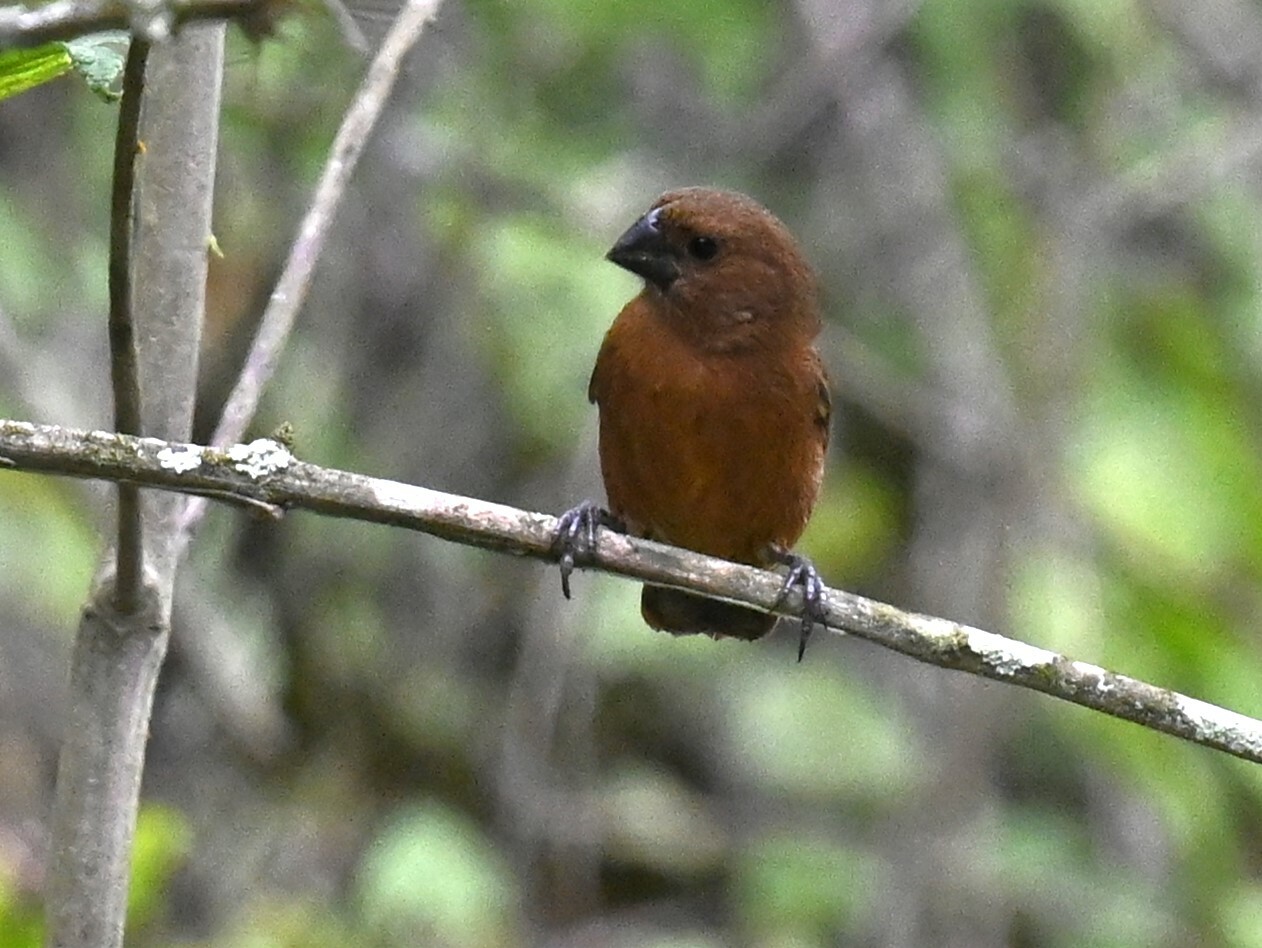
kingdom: Animalia
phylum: Chordata
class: Aves
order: Passeriformes
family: Thraupidae
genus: Sporophila
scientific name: Sporophila funerea
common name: Thick-billed seed-finch
